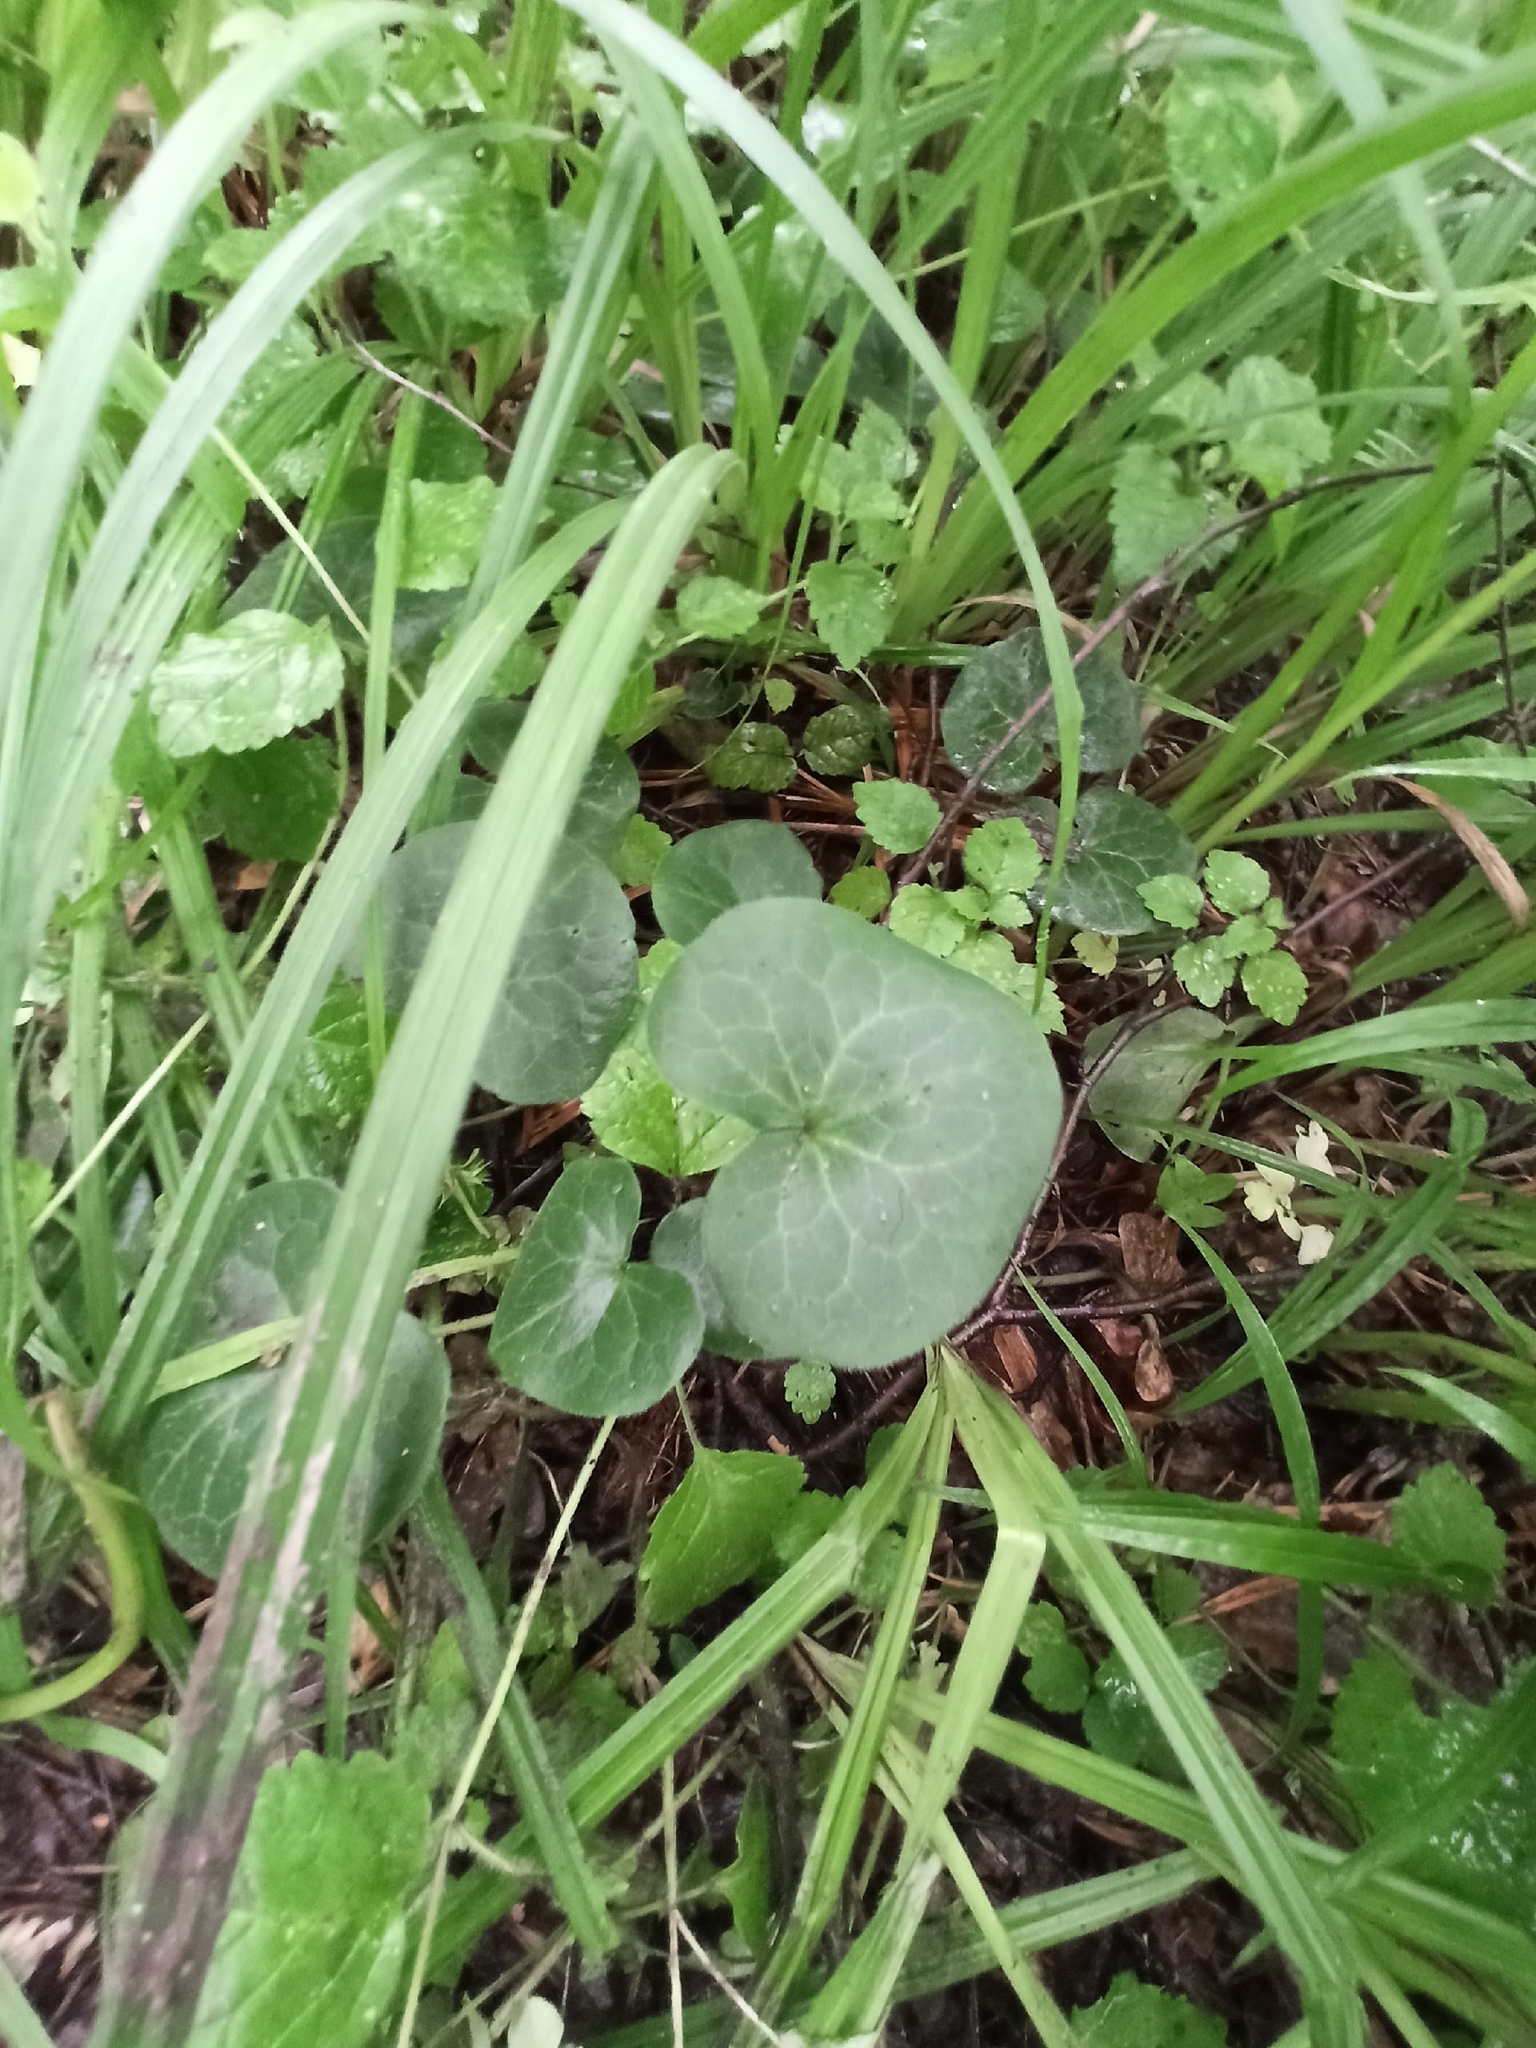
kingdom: Plantae
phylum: Tracheophyta
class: Magnoliopsida
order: Piperales
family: Aristolochiaceae
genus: Asarum
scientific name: Asarum europaeum
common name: Asarabacca
